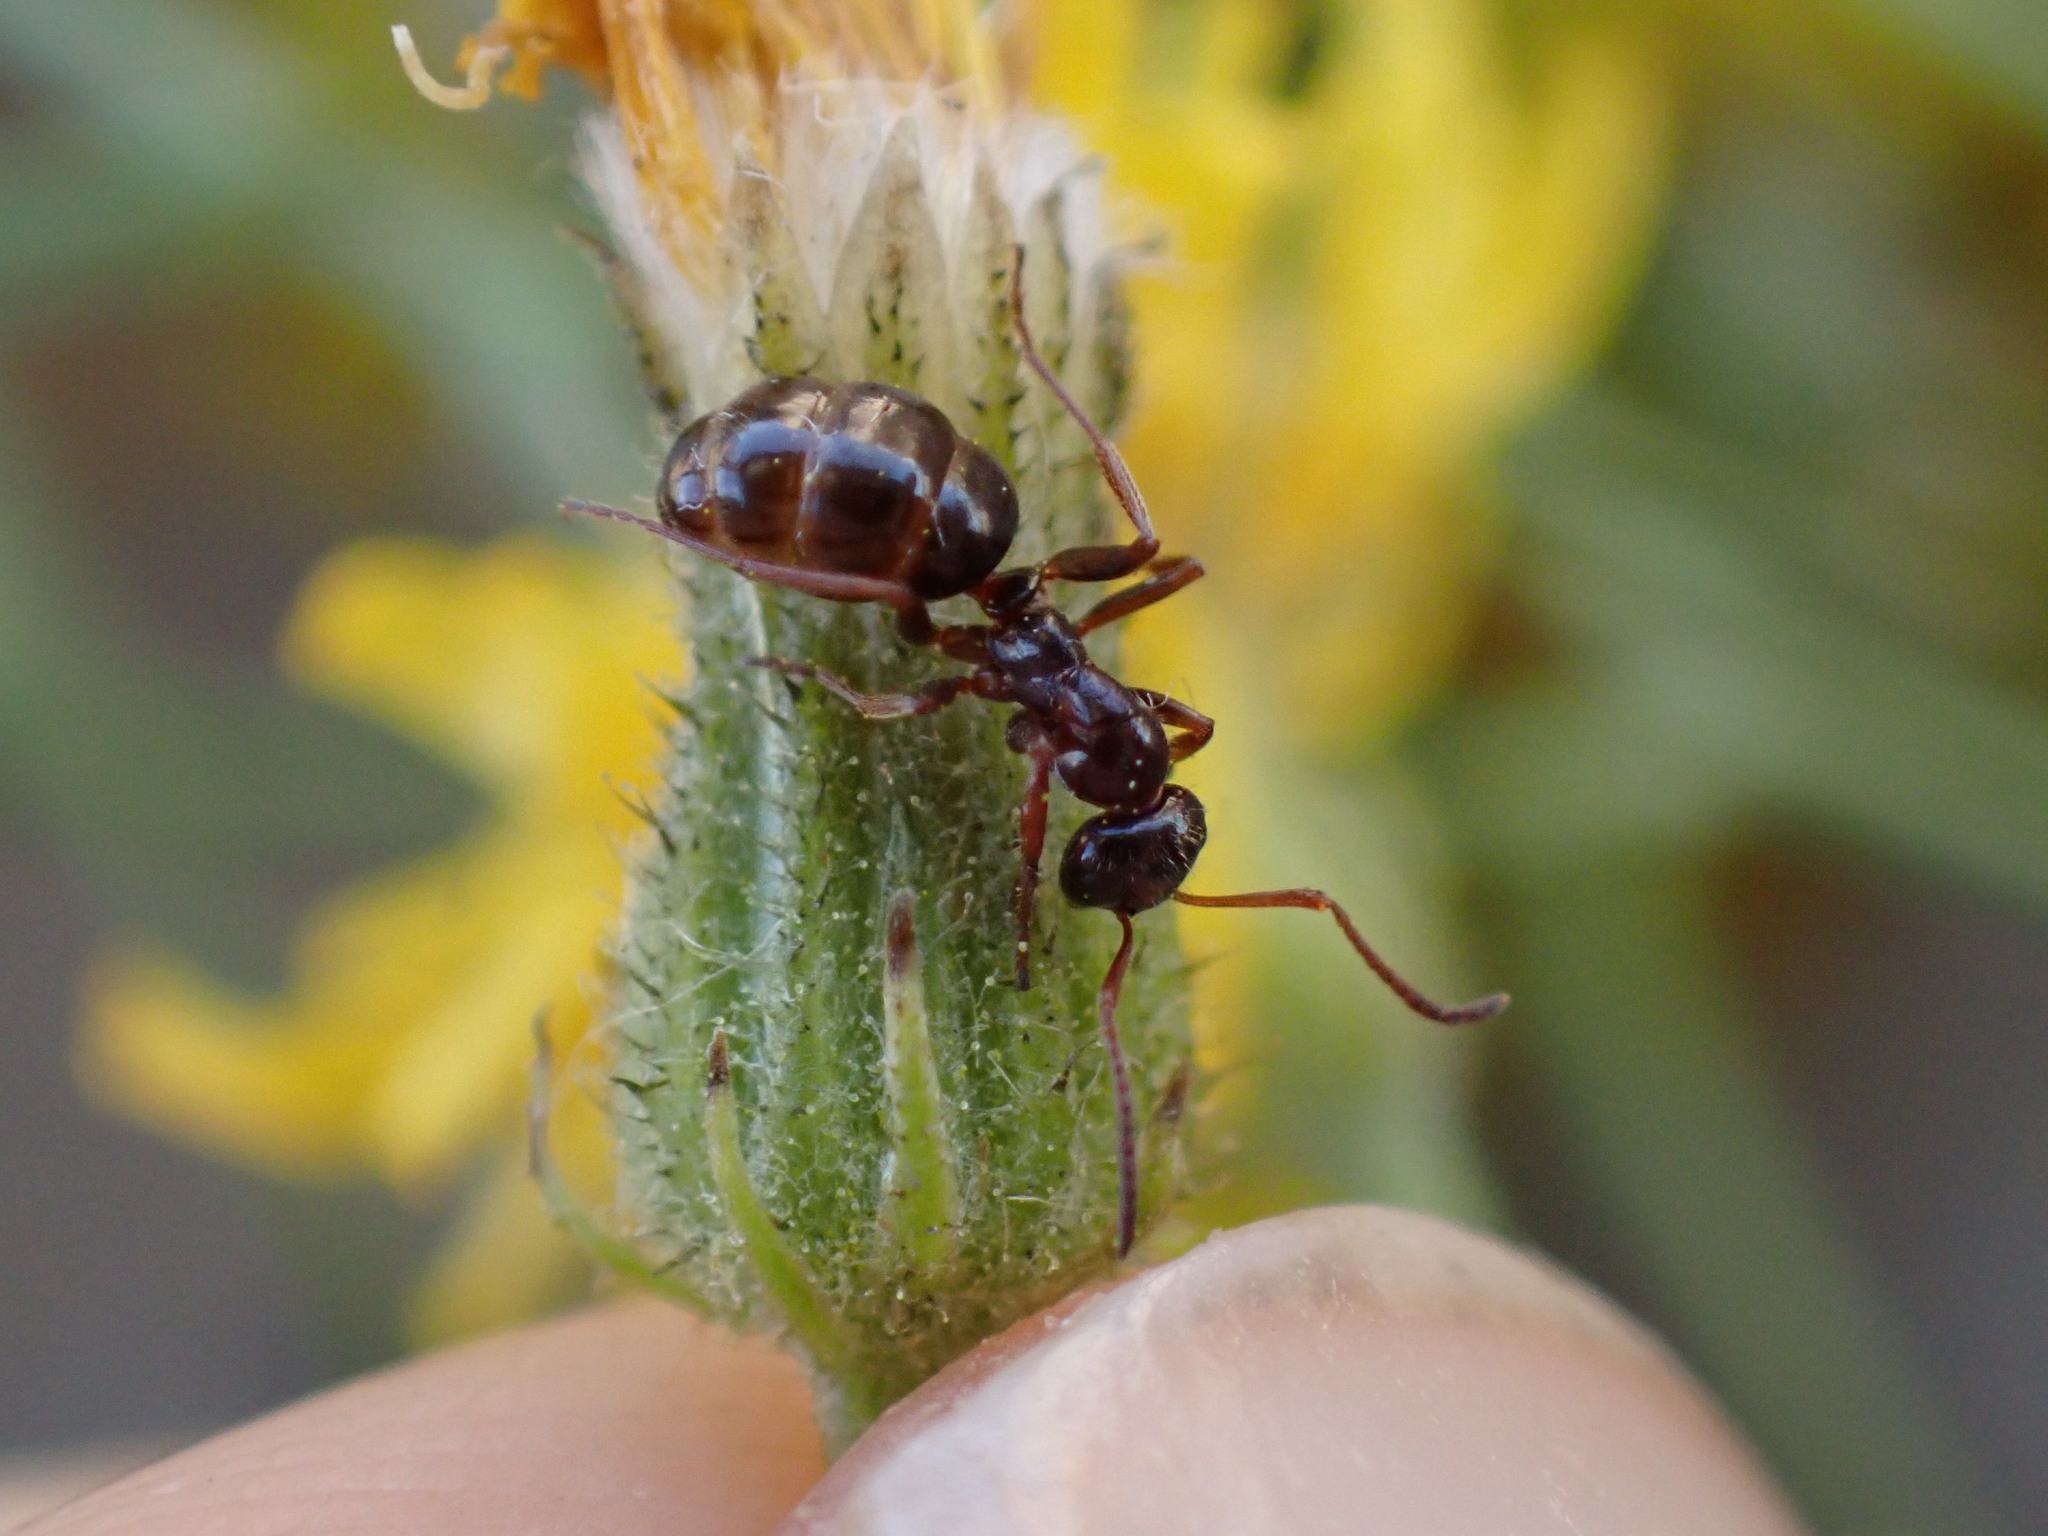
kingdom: Animalia
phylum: Arthropoda
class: Insecta
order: Hymenoptera
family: Formicidae
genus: Formica
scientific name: Formica neogagates
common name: New world black ant
